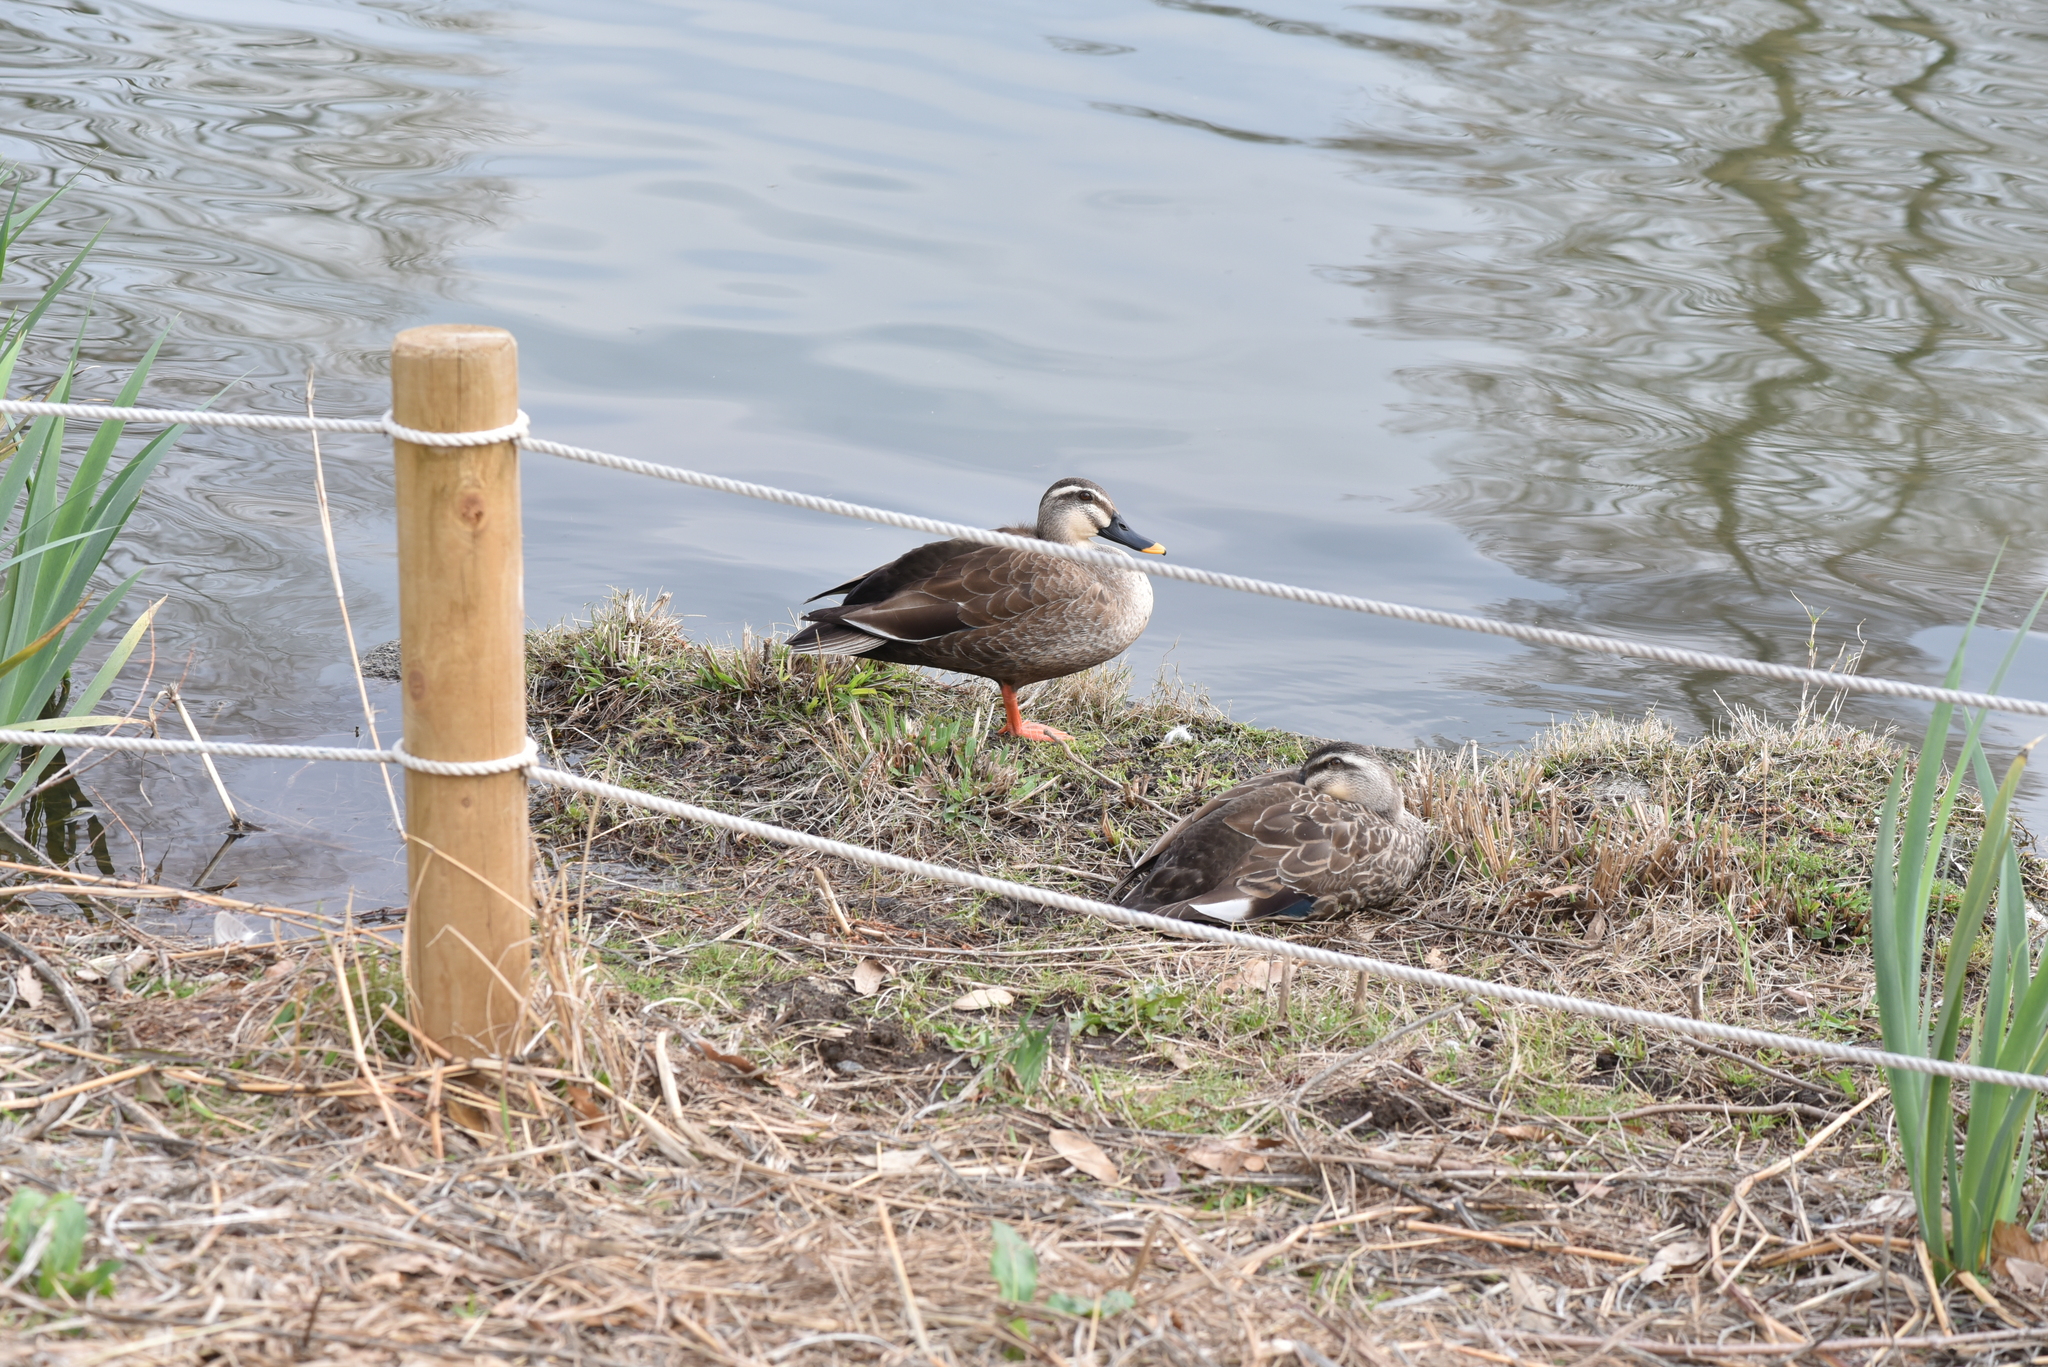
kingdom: Animalia
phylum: Chordata
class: Aves
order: Anseriformes
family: Anatidae
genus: Anas
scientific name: Anas zonorhyncha
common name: Eastern spot-billed duck
